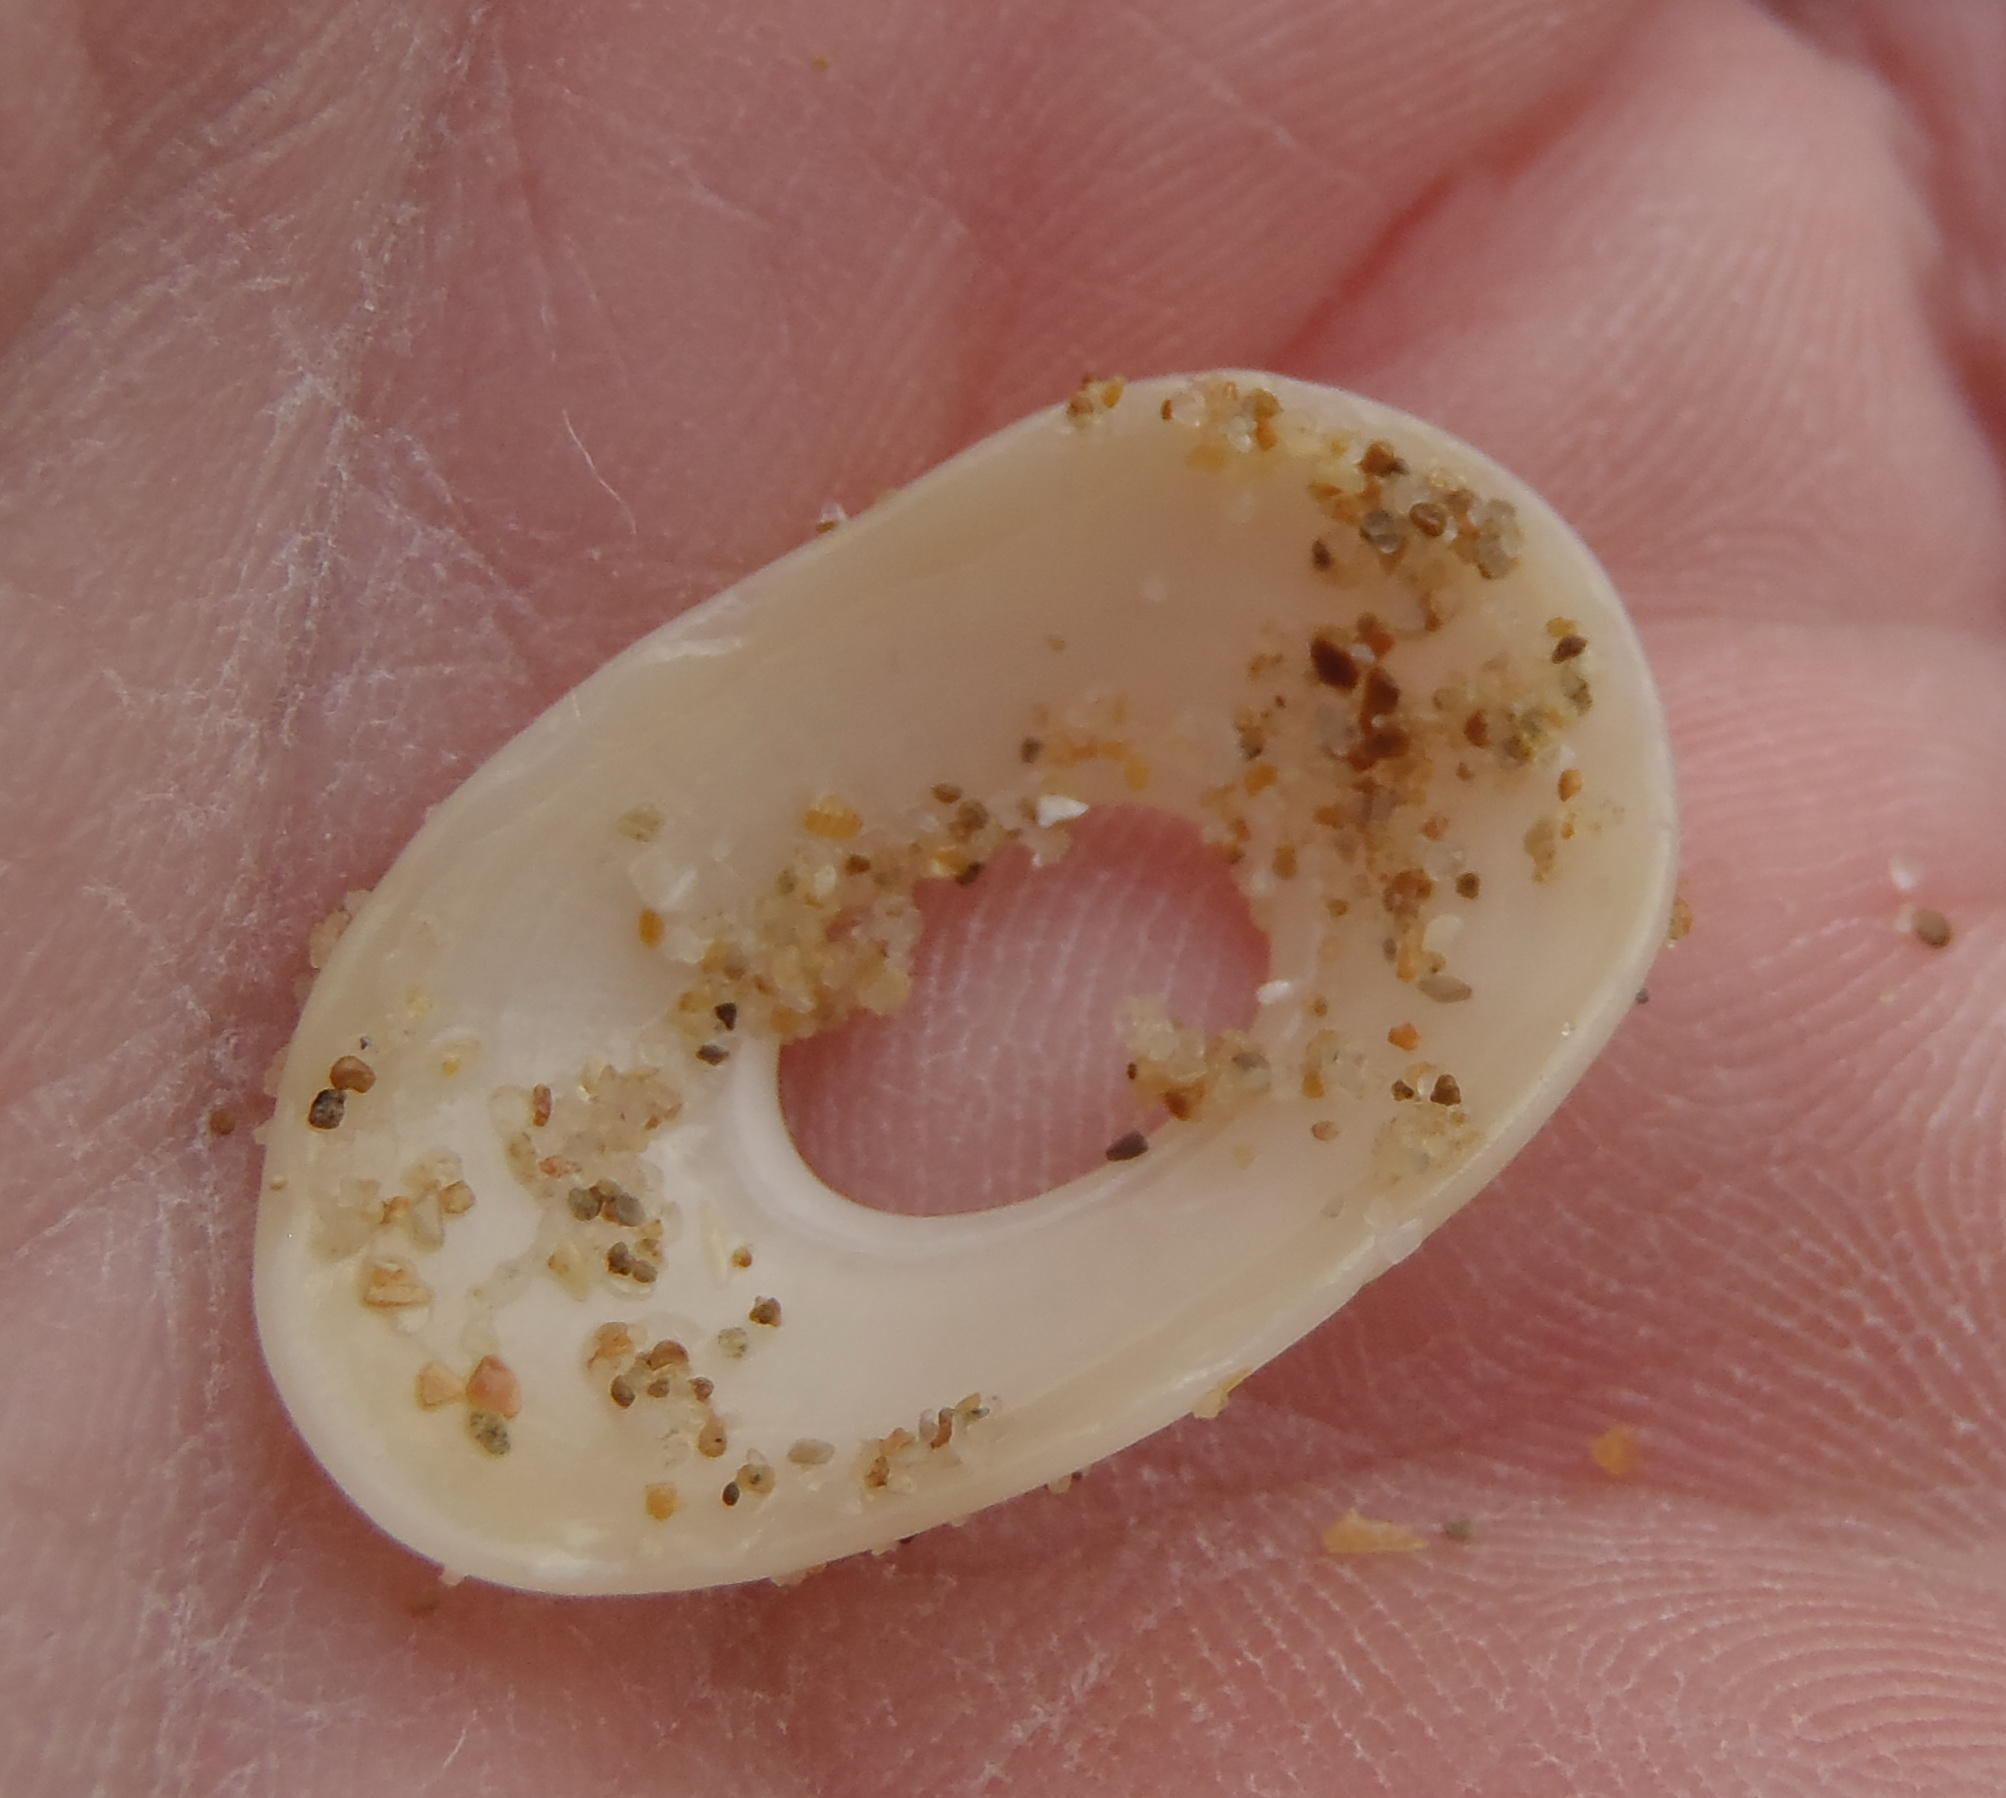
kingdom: Animalia
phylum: Mollusca
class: Gastropoda
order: Lepetellida
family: Fissurellidae
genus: Pupillaea
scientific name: Pupillaea aperta
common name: Mantled keyhole limpet
